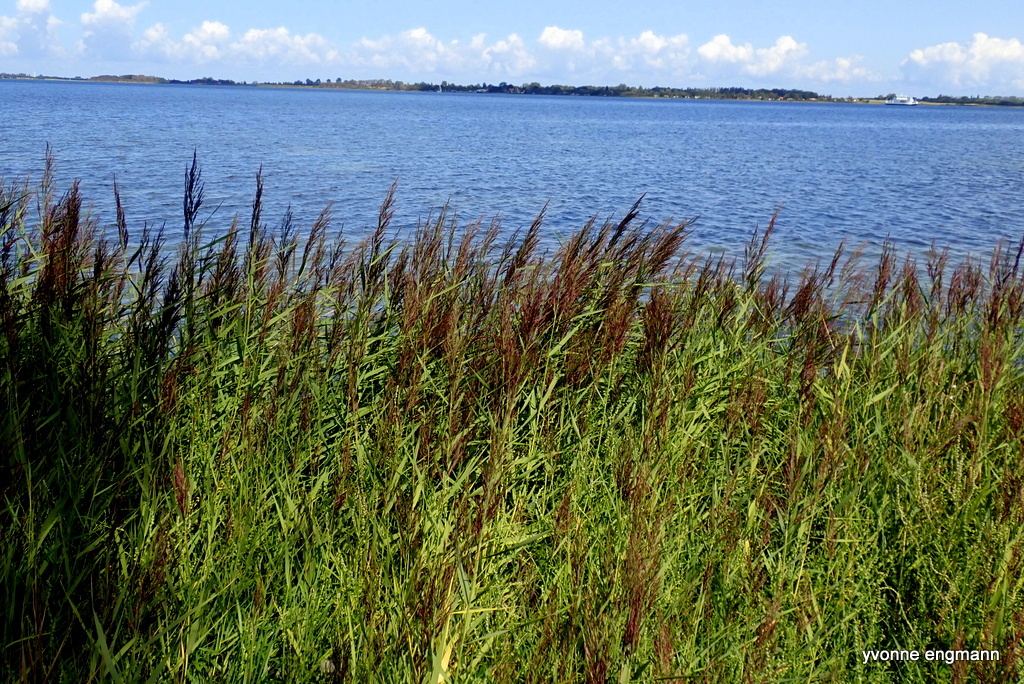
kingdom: Plantae
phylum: Tracheophyta
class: Liliopsida
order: Poales
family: Poaceae
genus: Phragmites
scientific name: Phragmites australis
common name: Common reed
